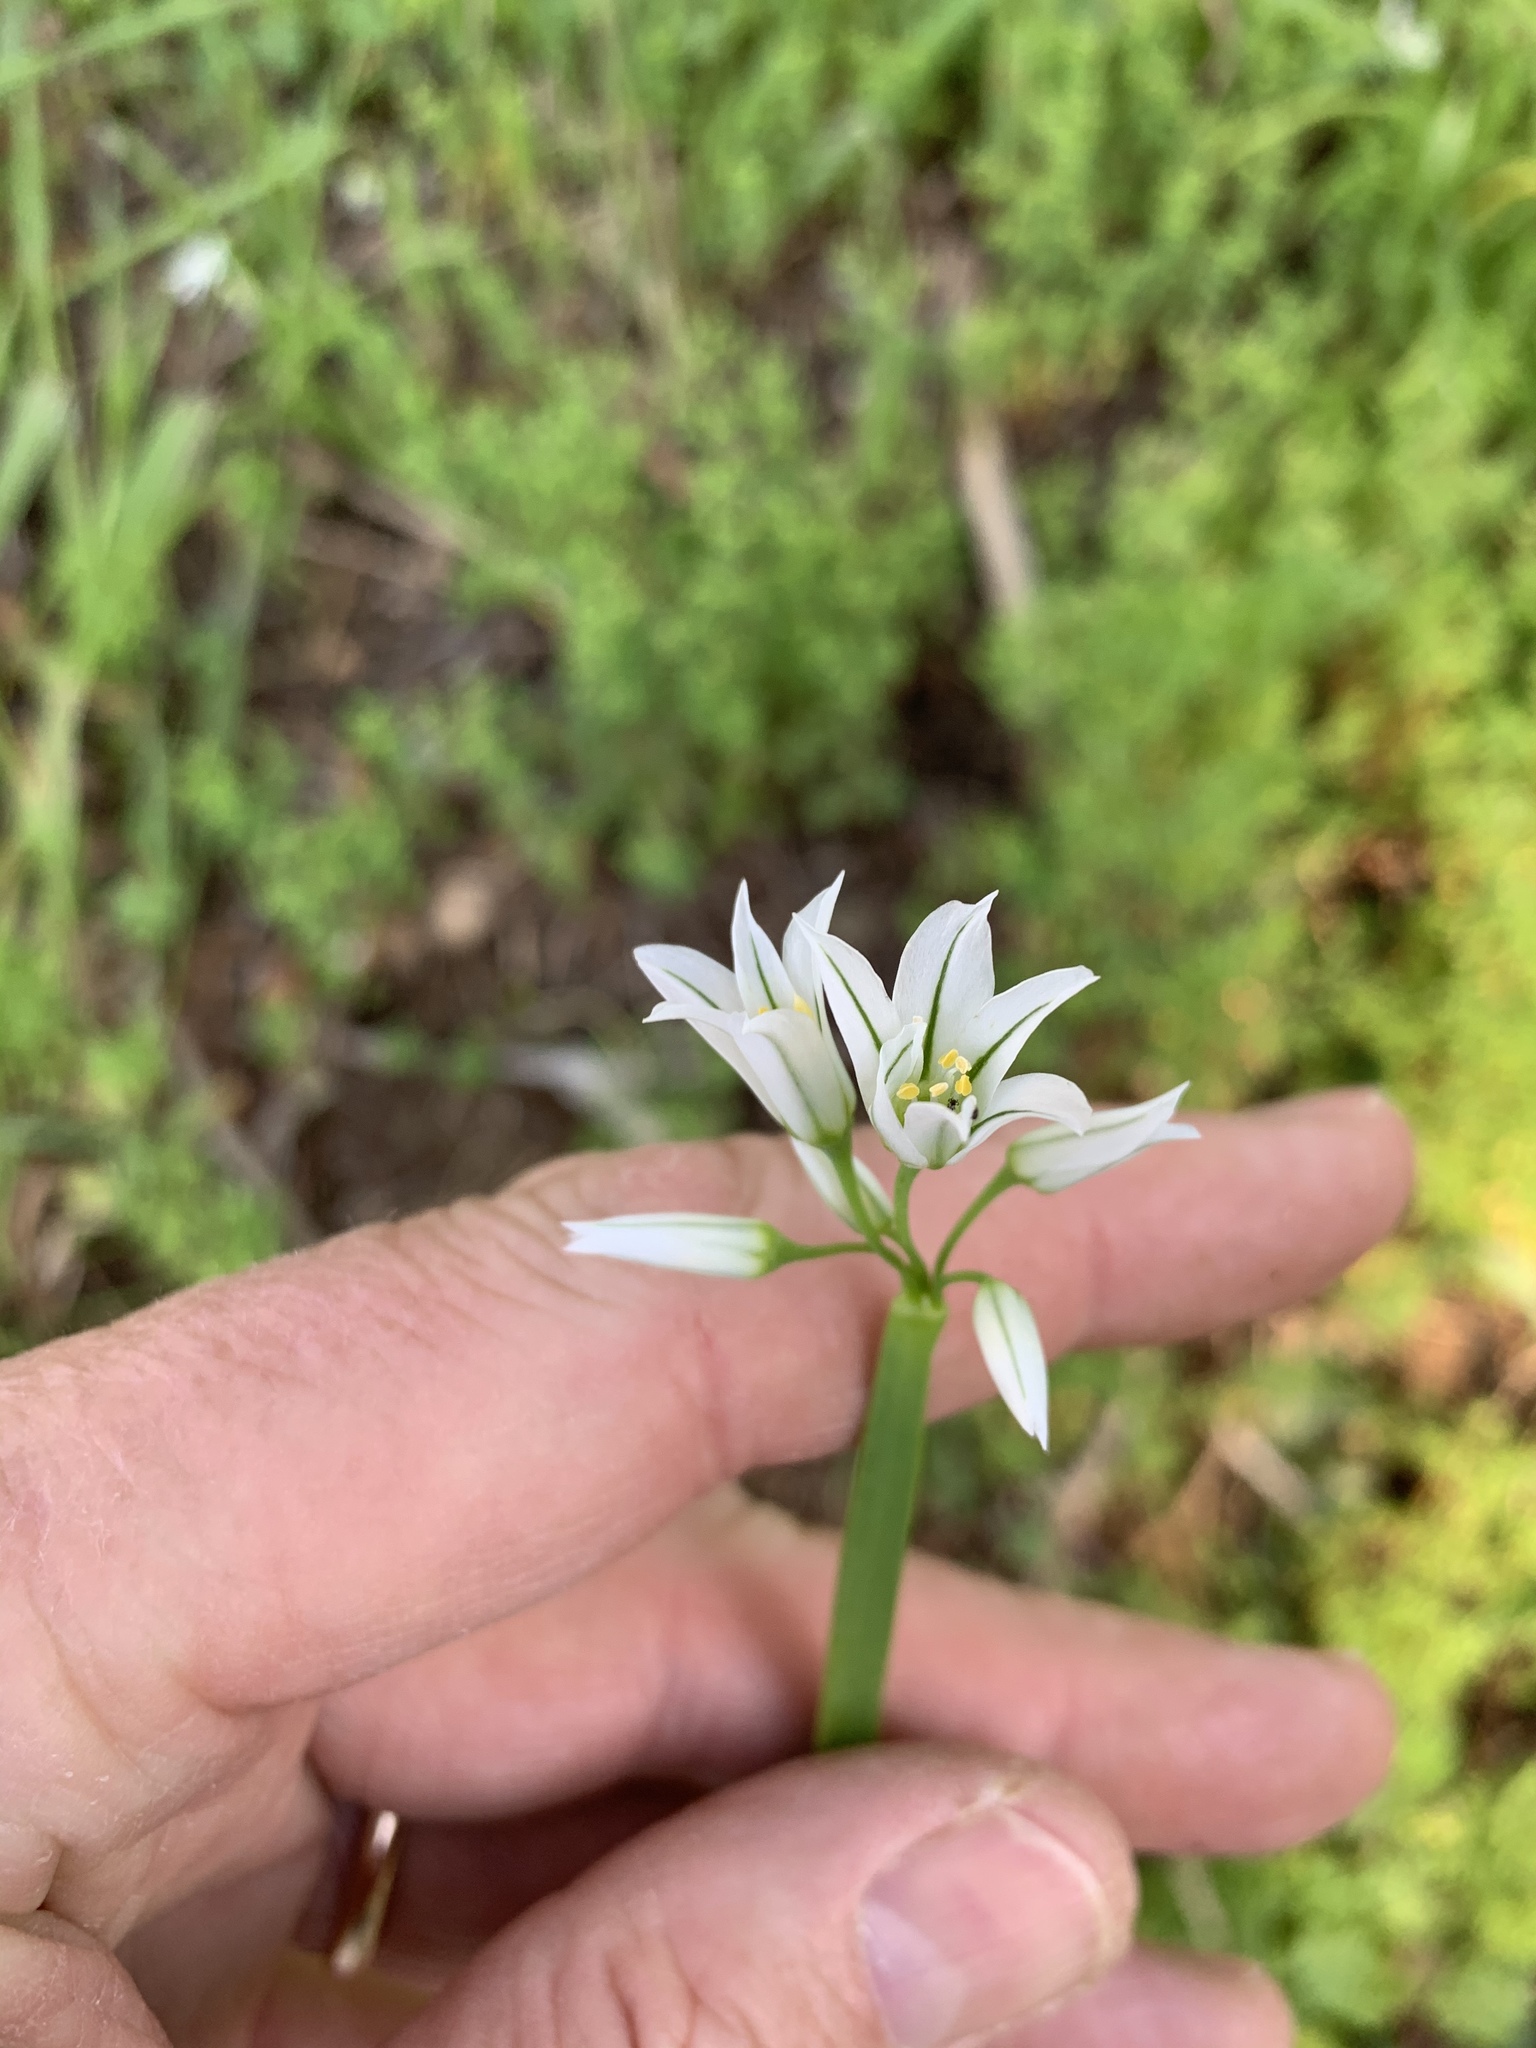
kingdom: Plantae
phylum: Tracheophyta
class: Liliopsida
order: Asparagales
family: Amaryllidaceae
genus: Allium
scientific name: Allium triquetrum
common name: Three-cornered garlic
